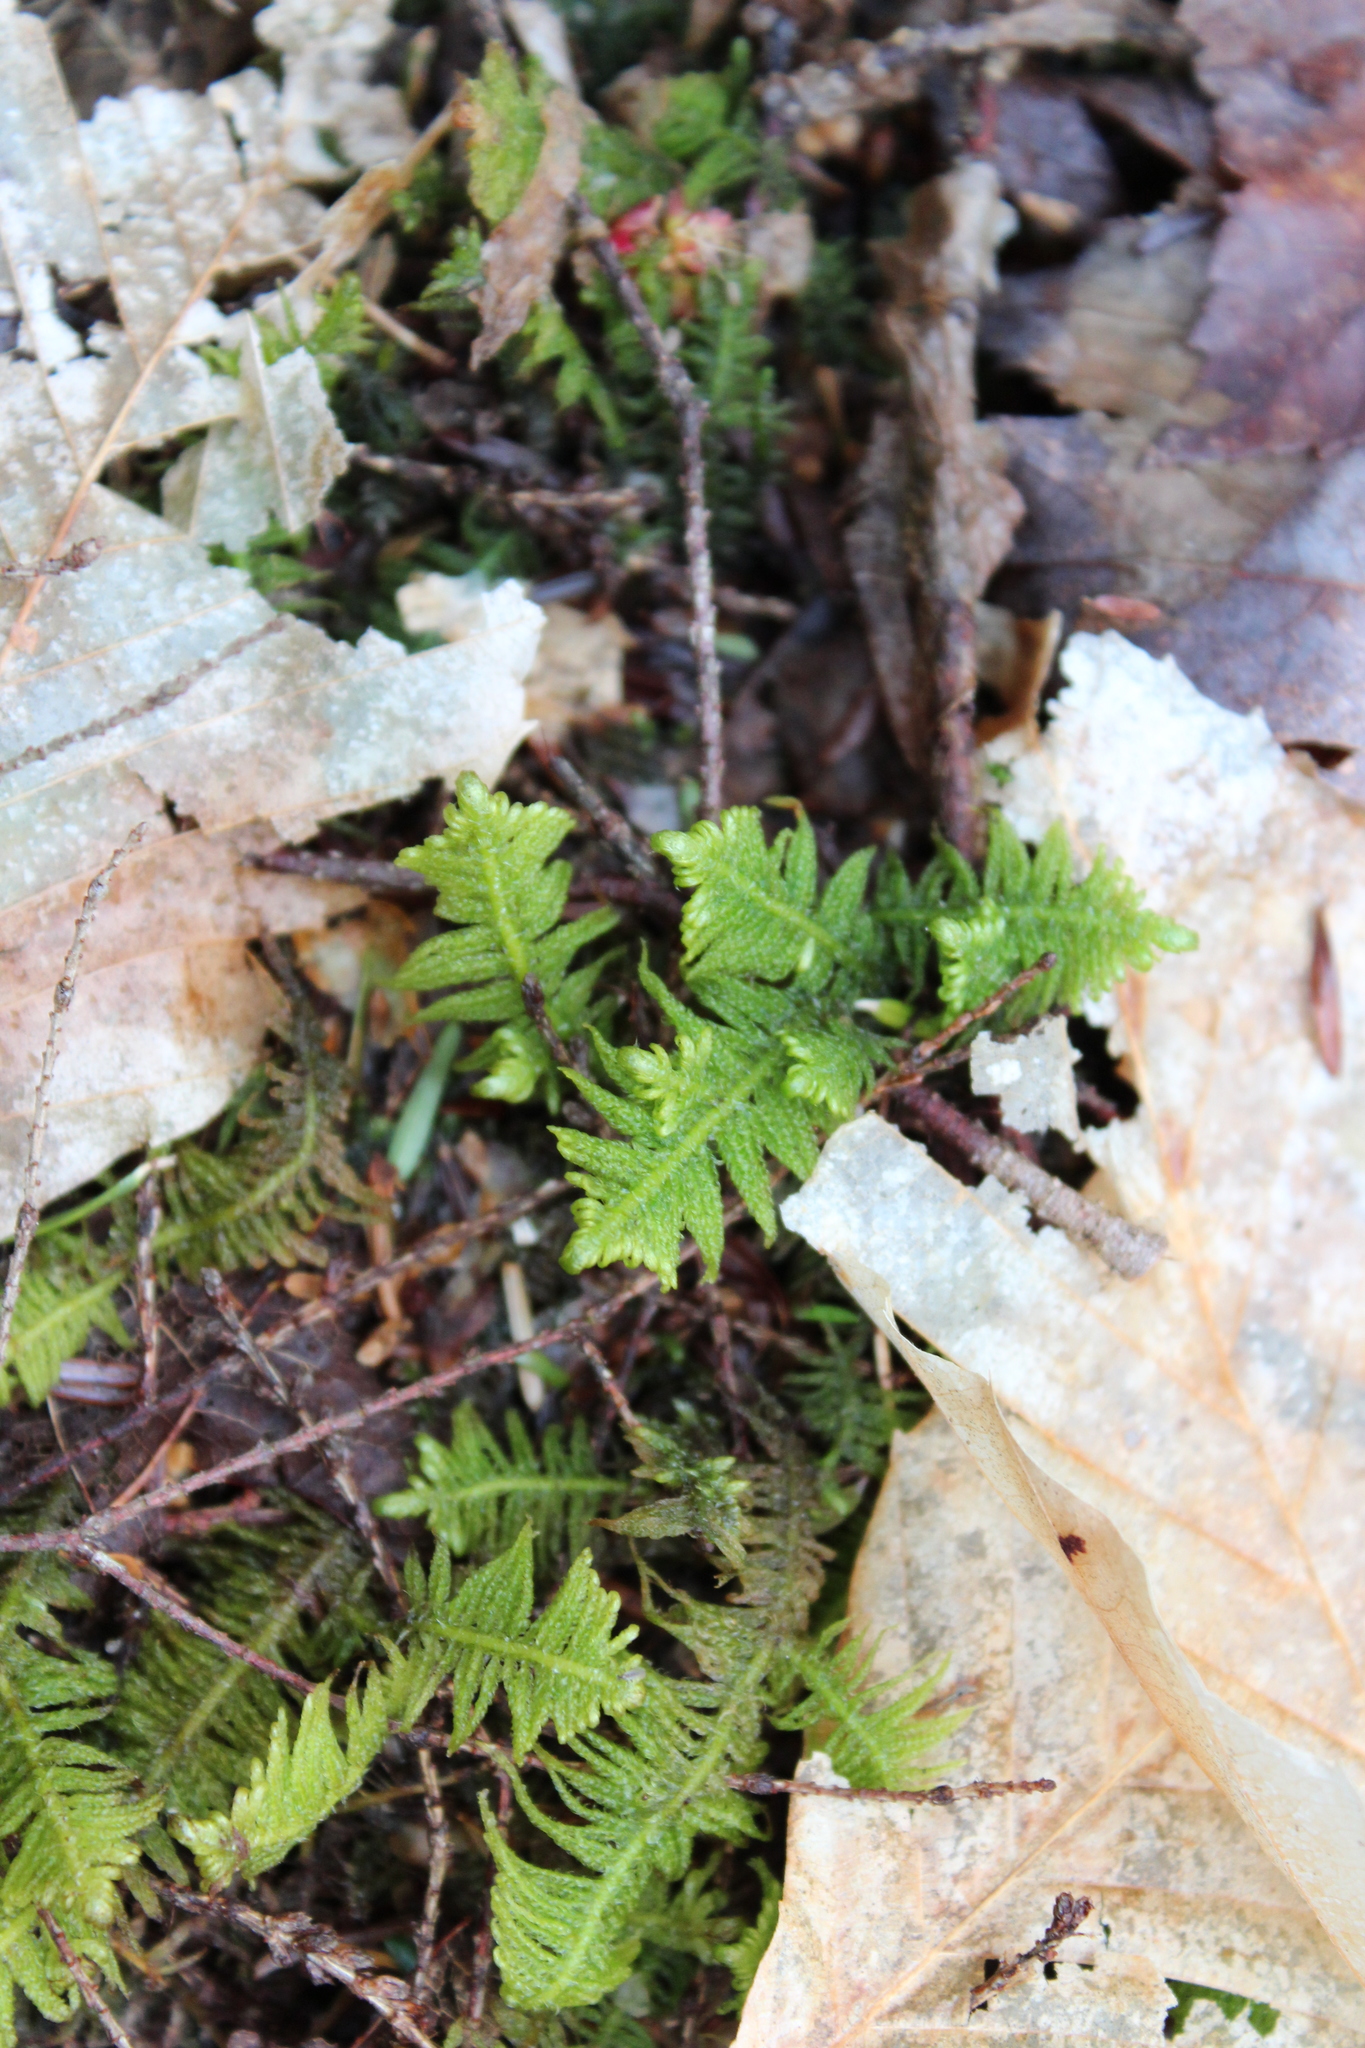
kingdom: Plantae
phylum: Bryophyta
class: Bryopsida
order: Hypnales
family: Pylaisiaceae
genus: Ptilium
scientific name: Ptilium crista-castrensis
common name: Knight's plume moss
